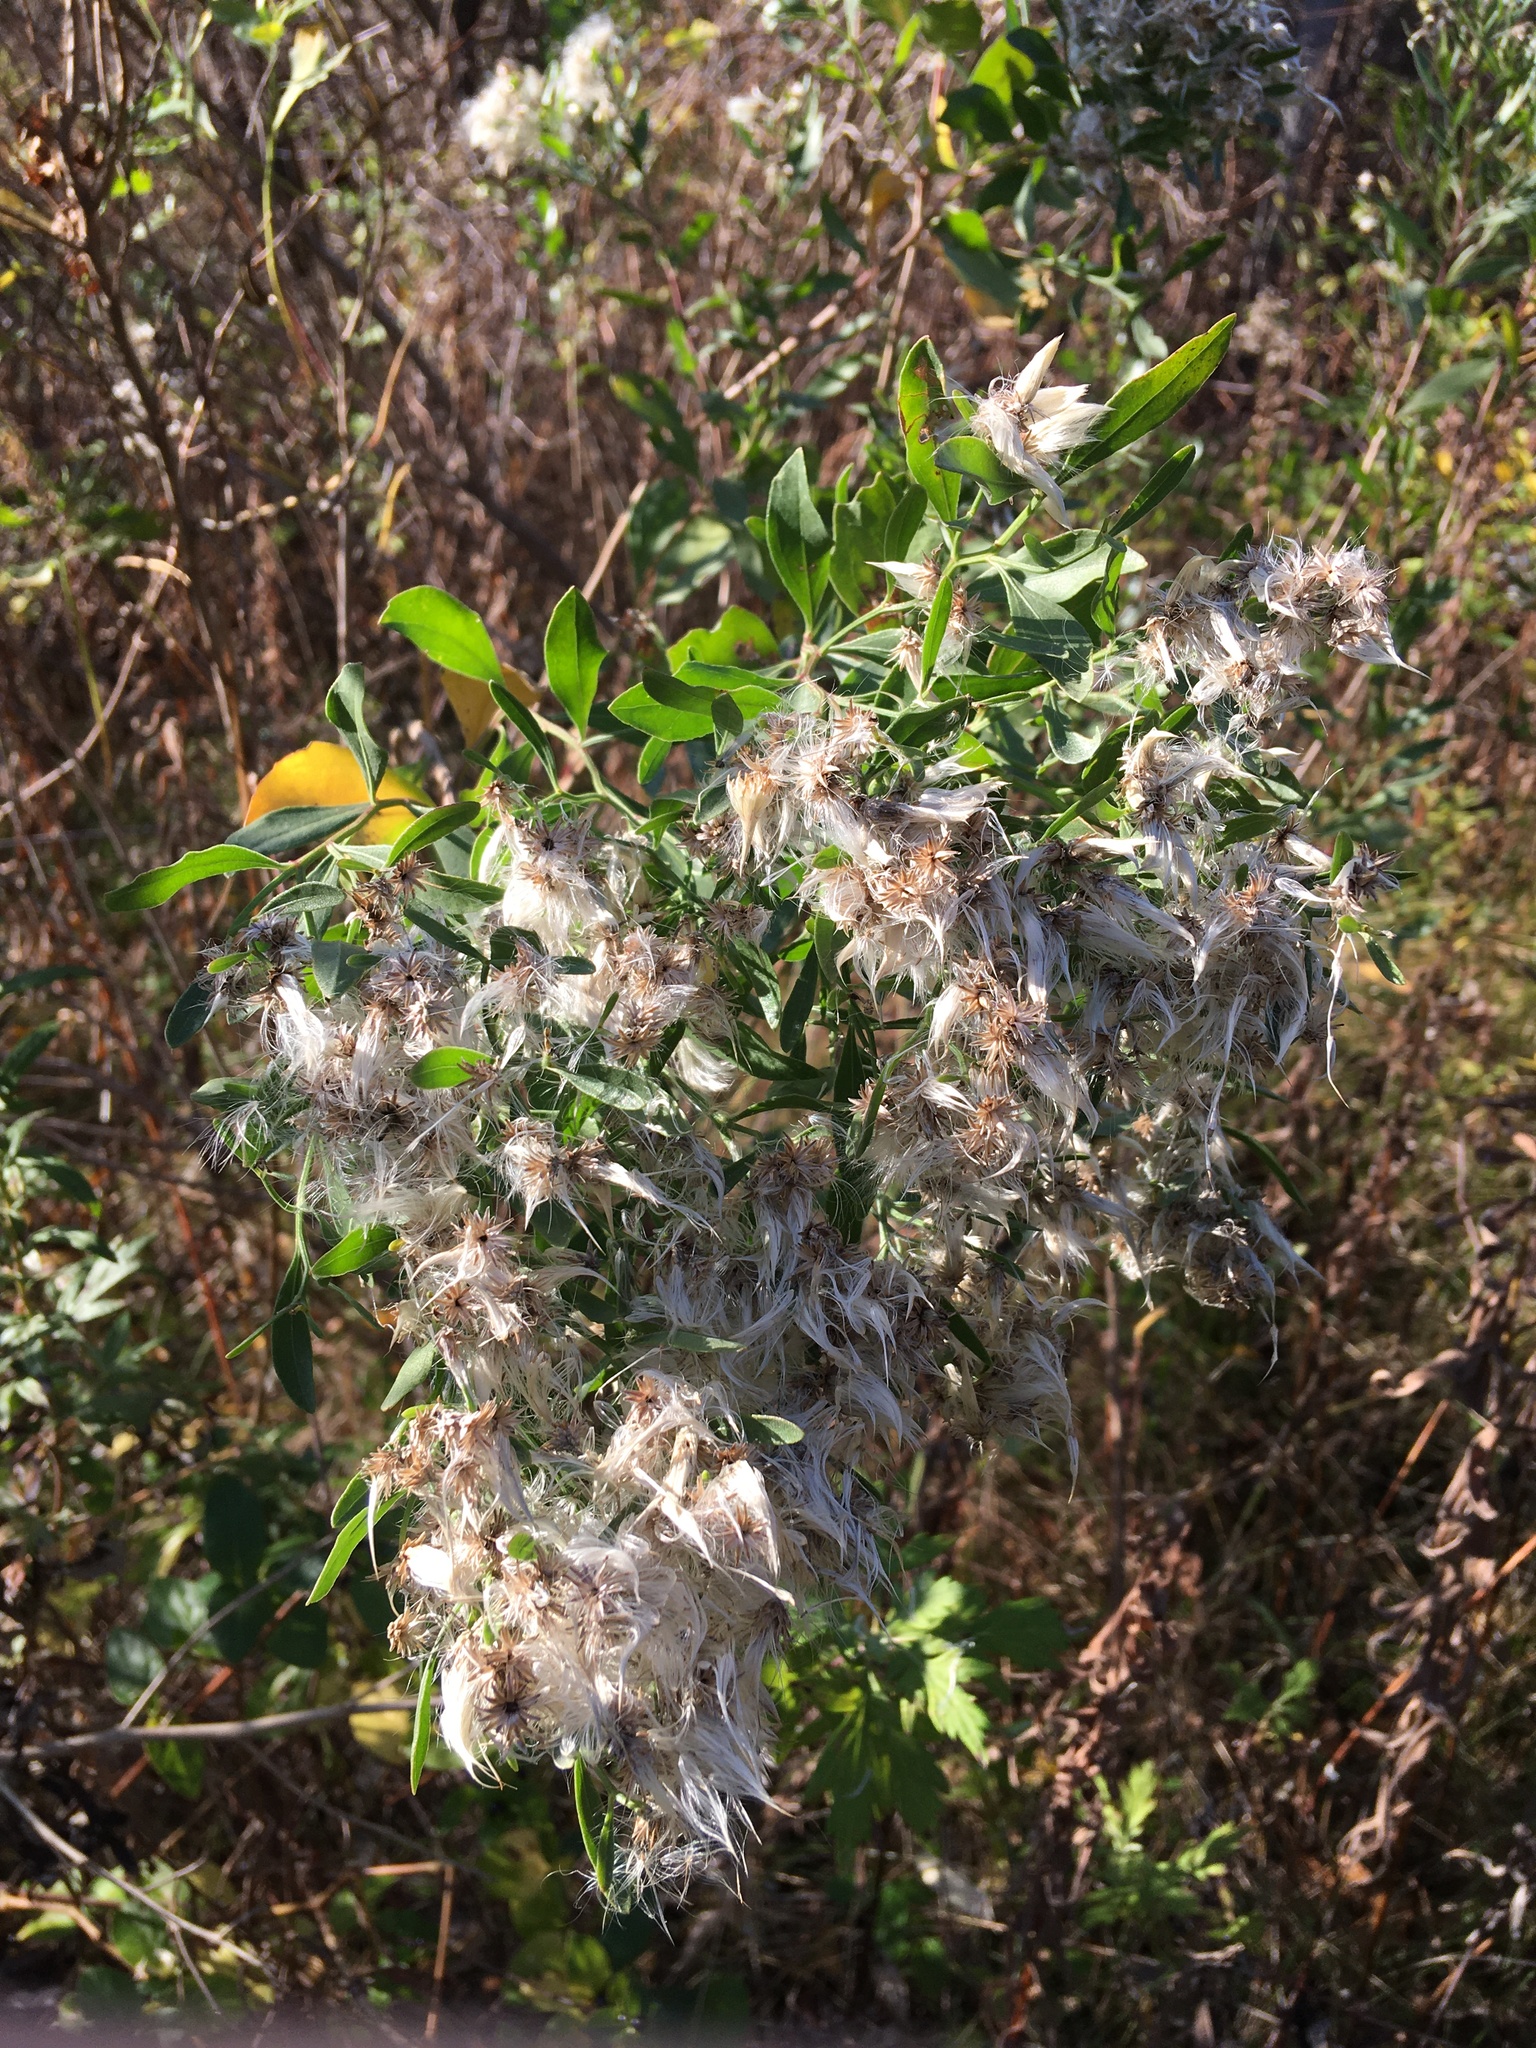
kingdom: Plantae
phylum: Tracheophyta
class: Magnoliopsida
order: Asterales
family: Asteraceae
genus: Baccharis
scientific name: Baccharis halimifolia
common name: Eastern baccharis
